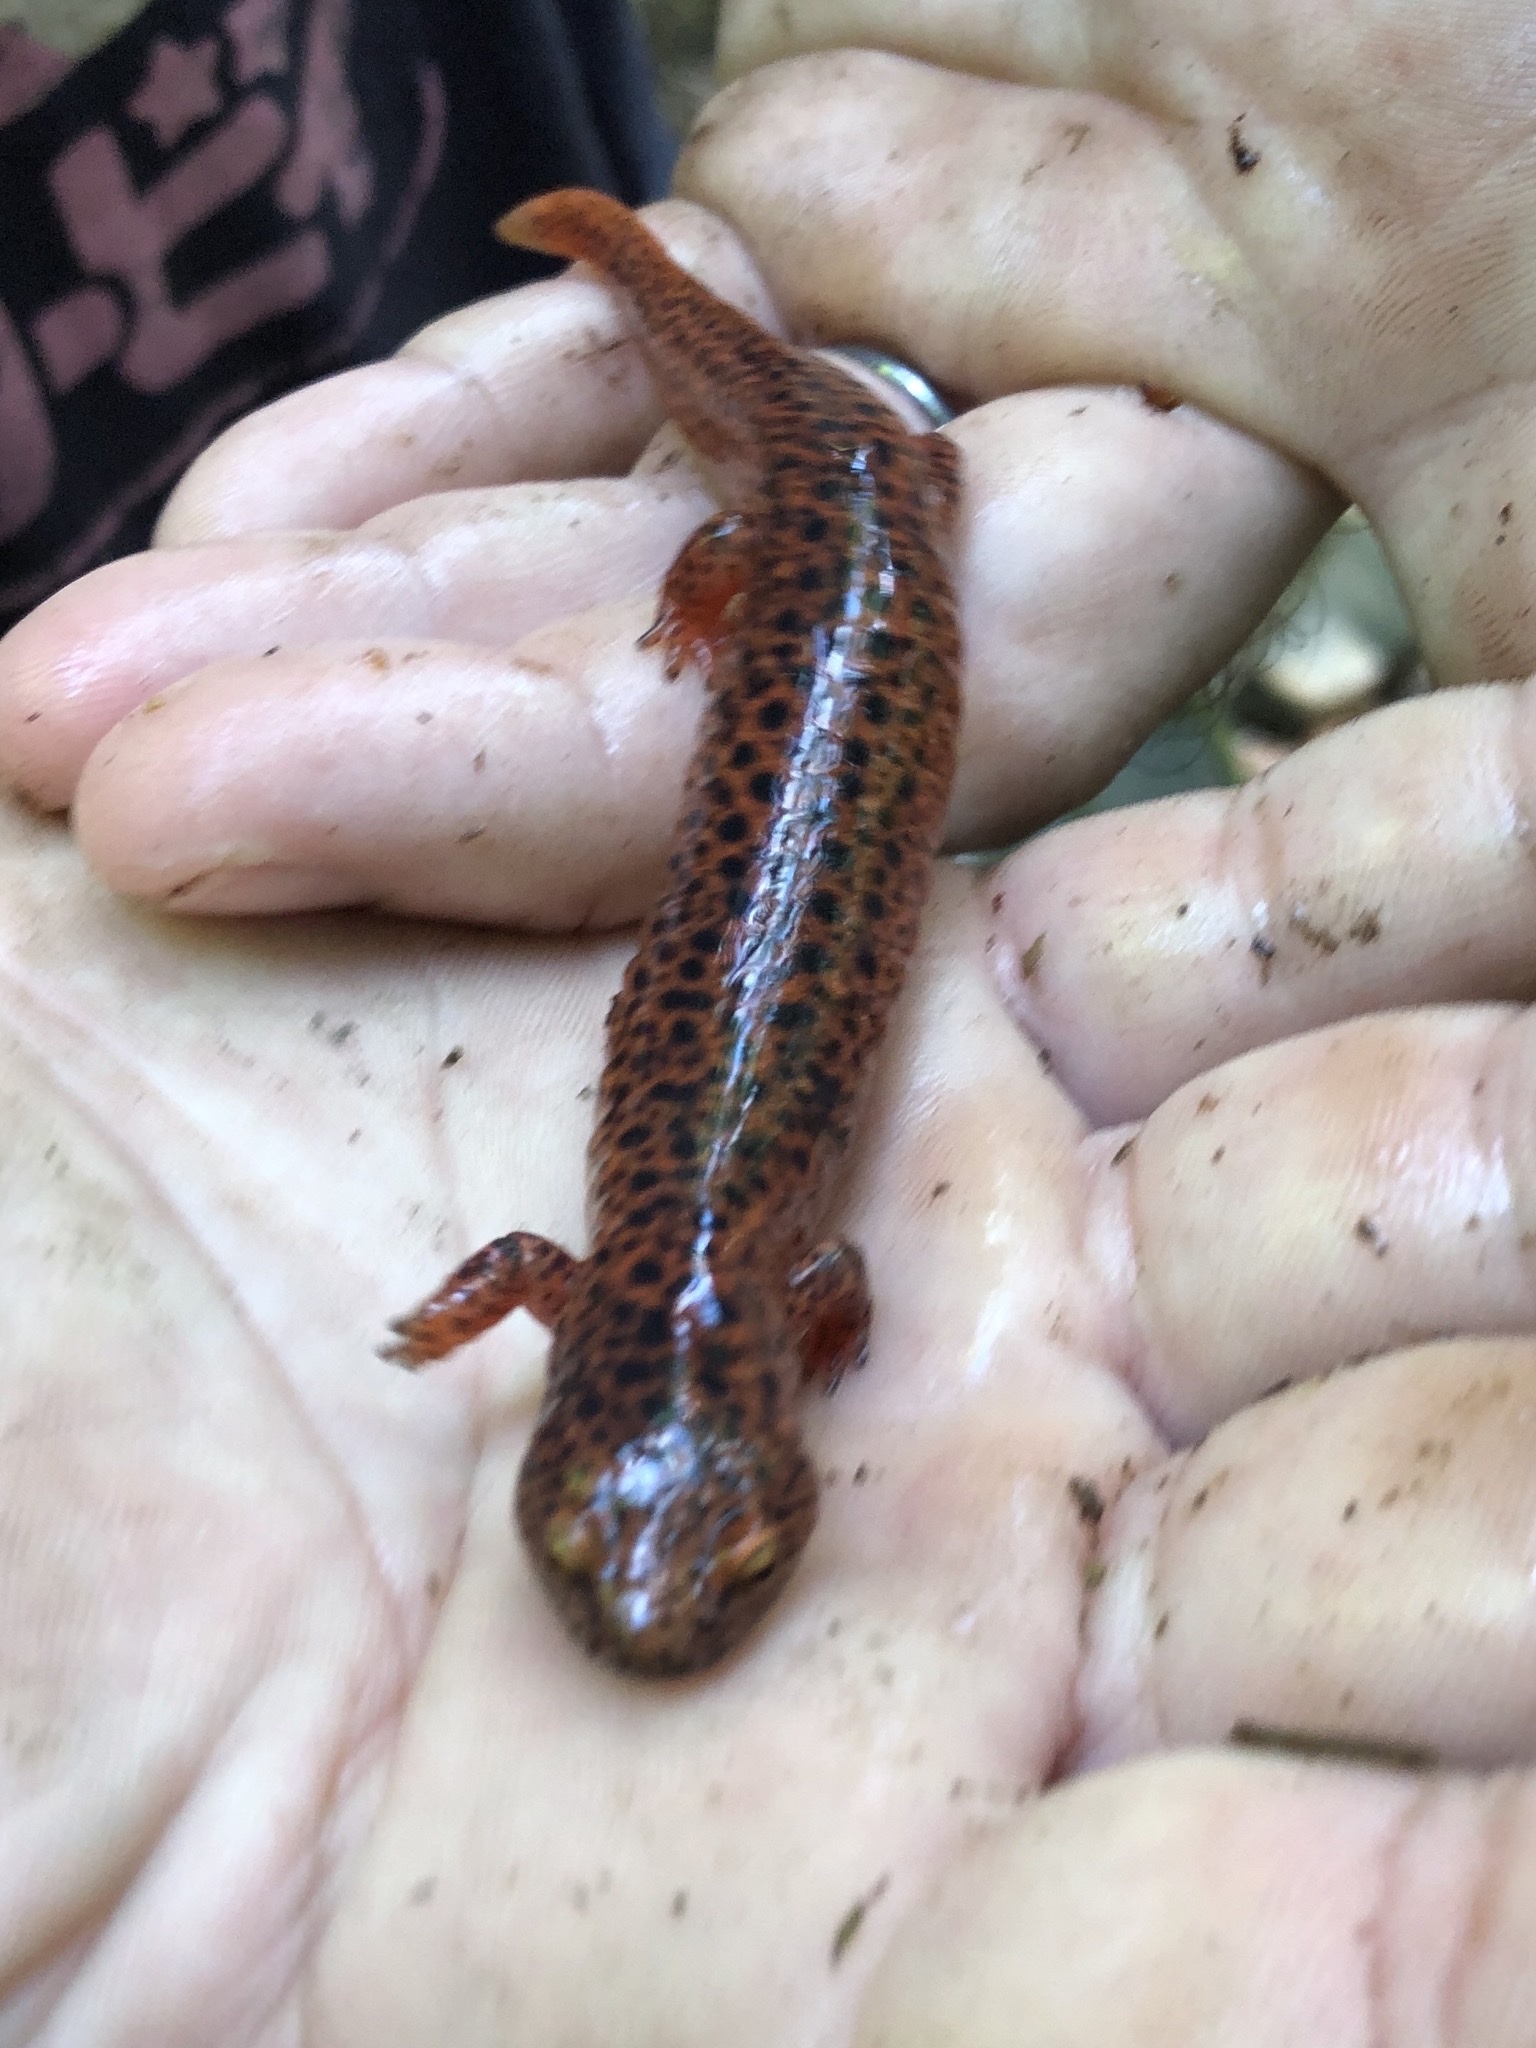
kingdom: Animalia
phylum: Chordata
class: Amphibia
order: Caudata
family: Plethodontidae
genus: Pseudotriton
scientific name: Pseudotriton ruber
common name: Red salamander
